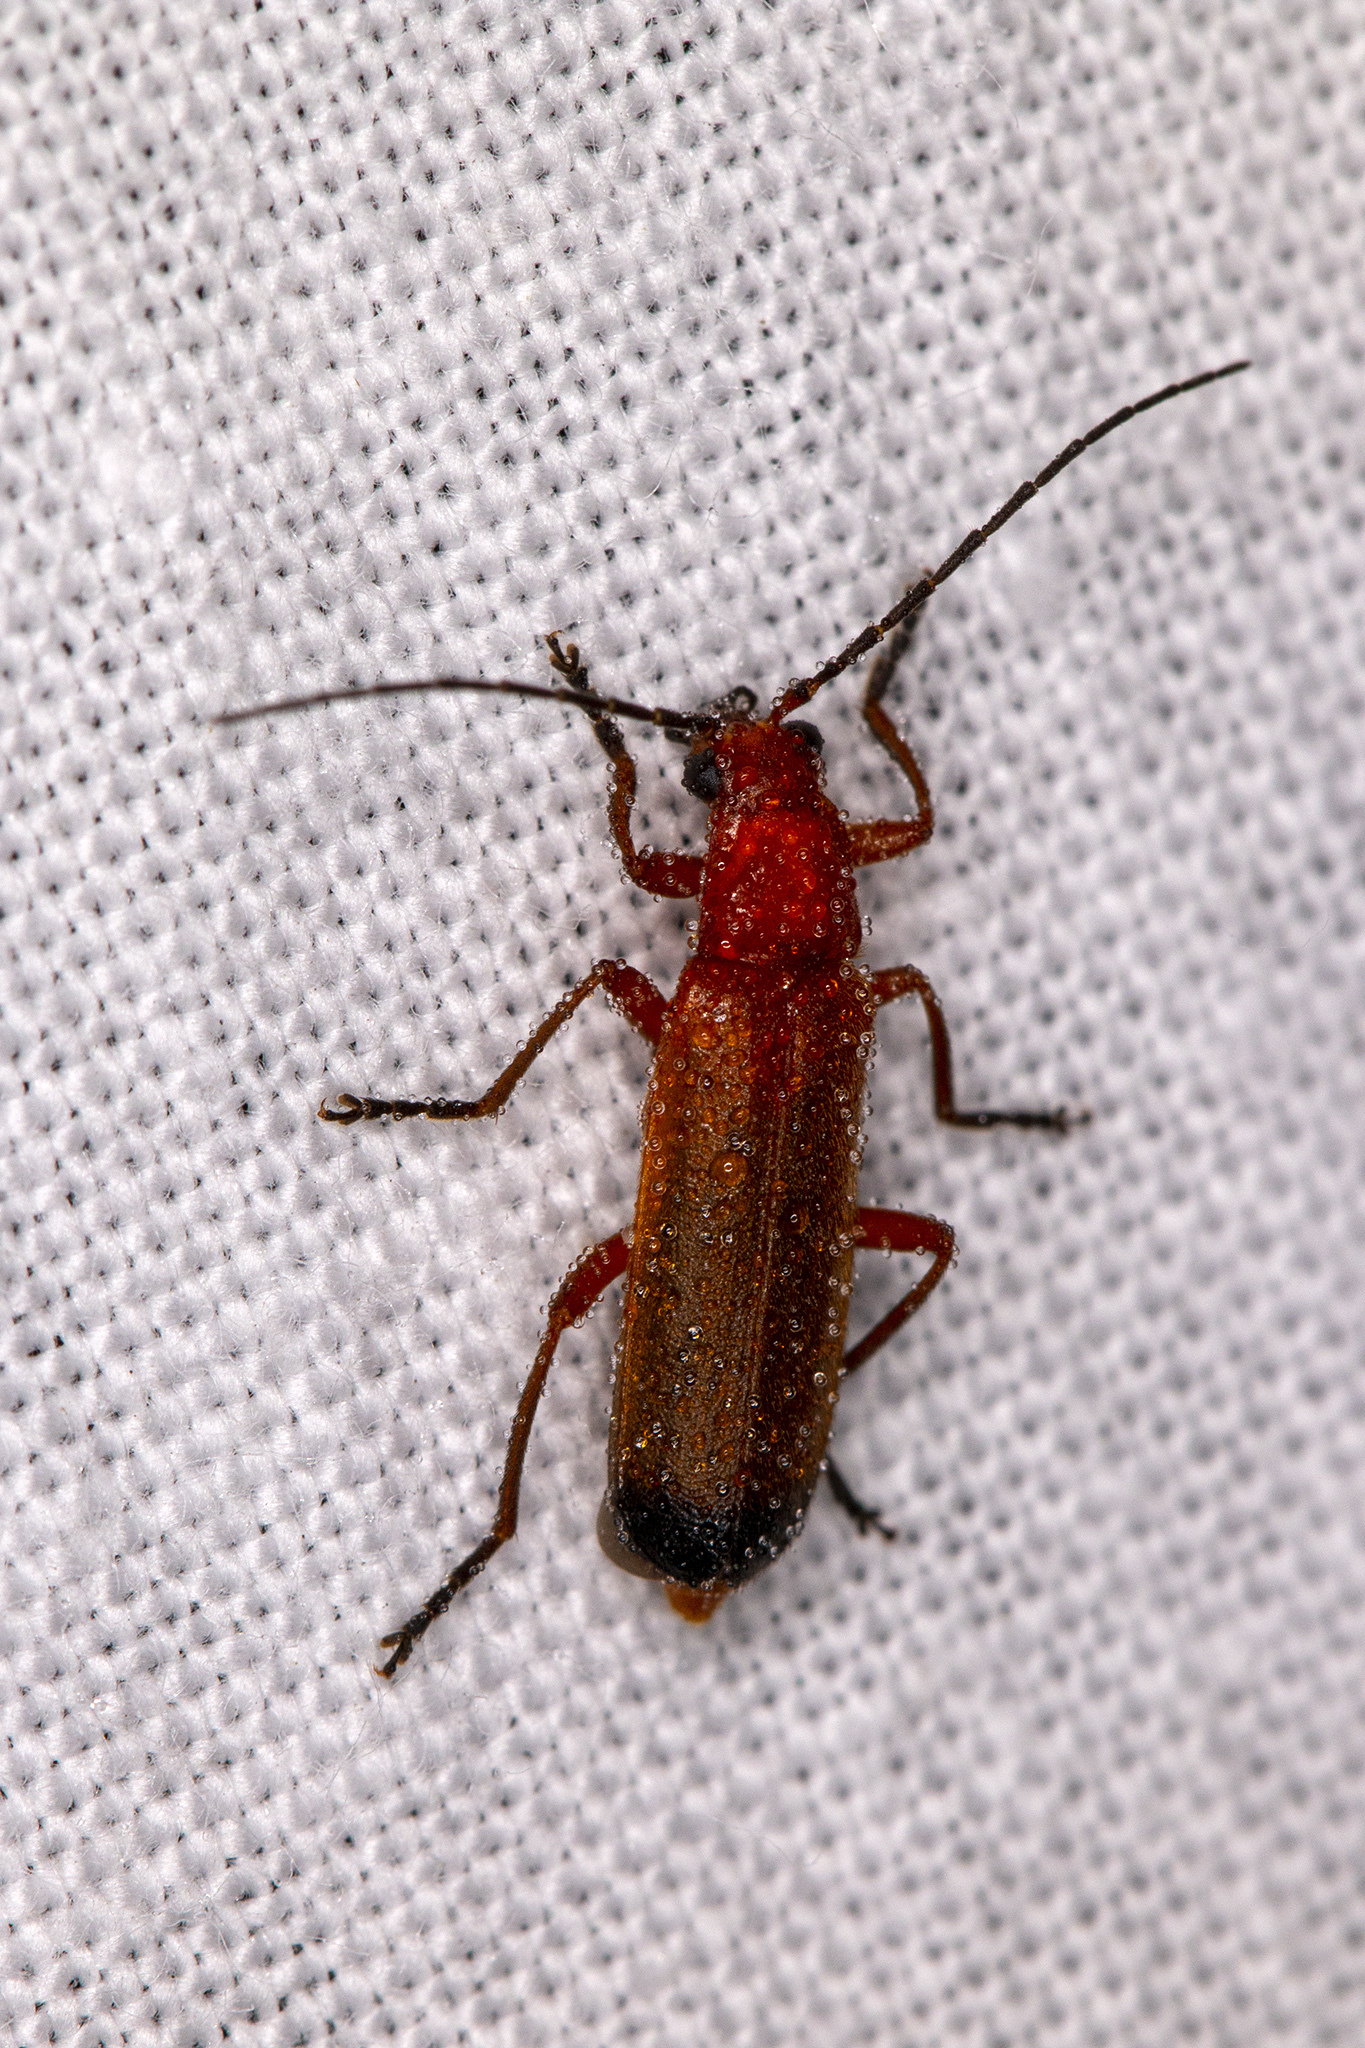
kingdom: Animalia
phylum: Arthropoda
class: Insecta
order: Coleoptera
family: Cantharidae
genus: Rhagonycha
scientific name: Rhagonycha fulva
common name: Common red soldier beetle
